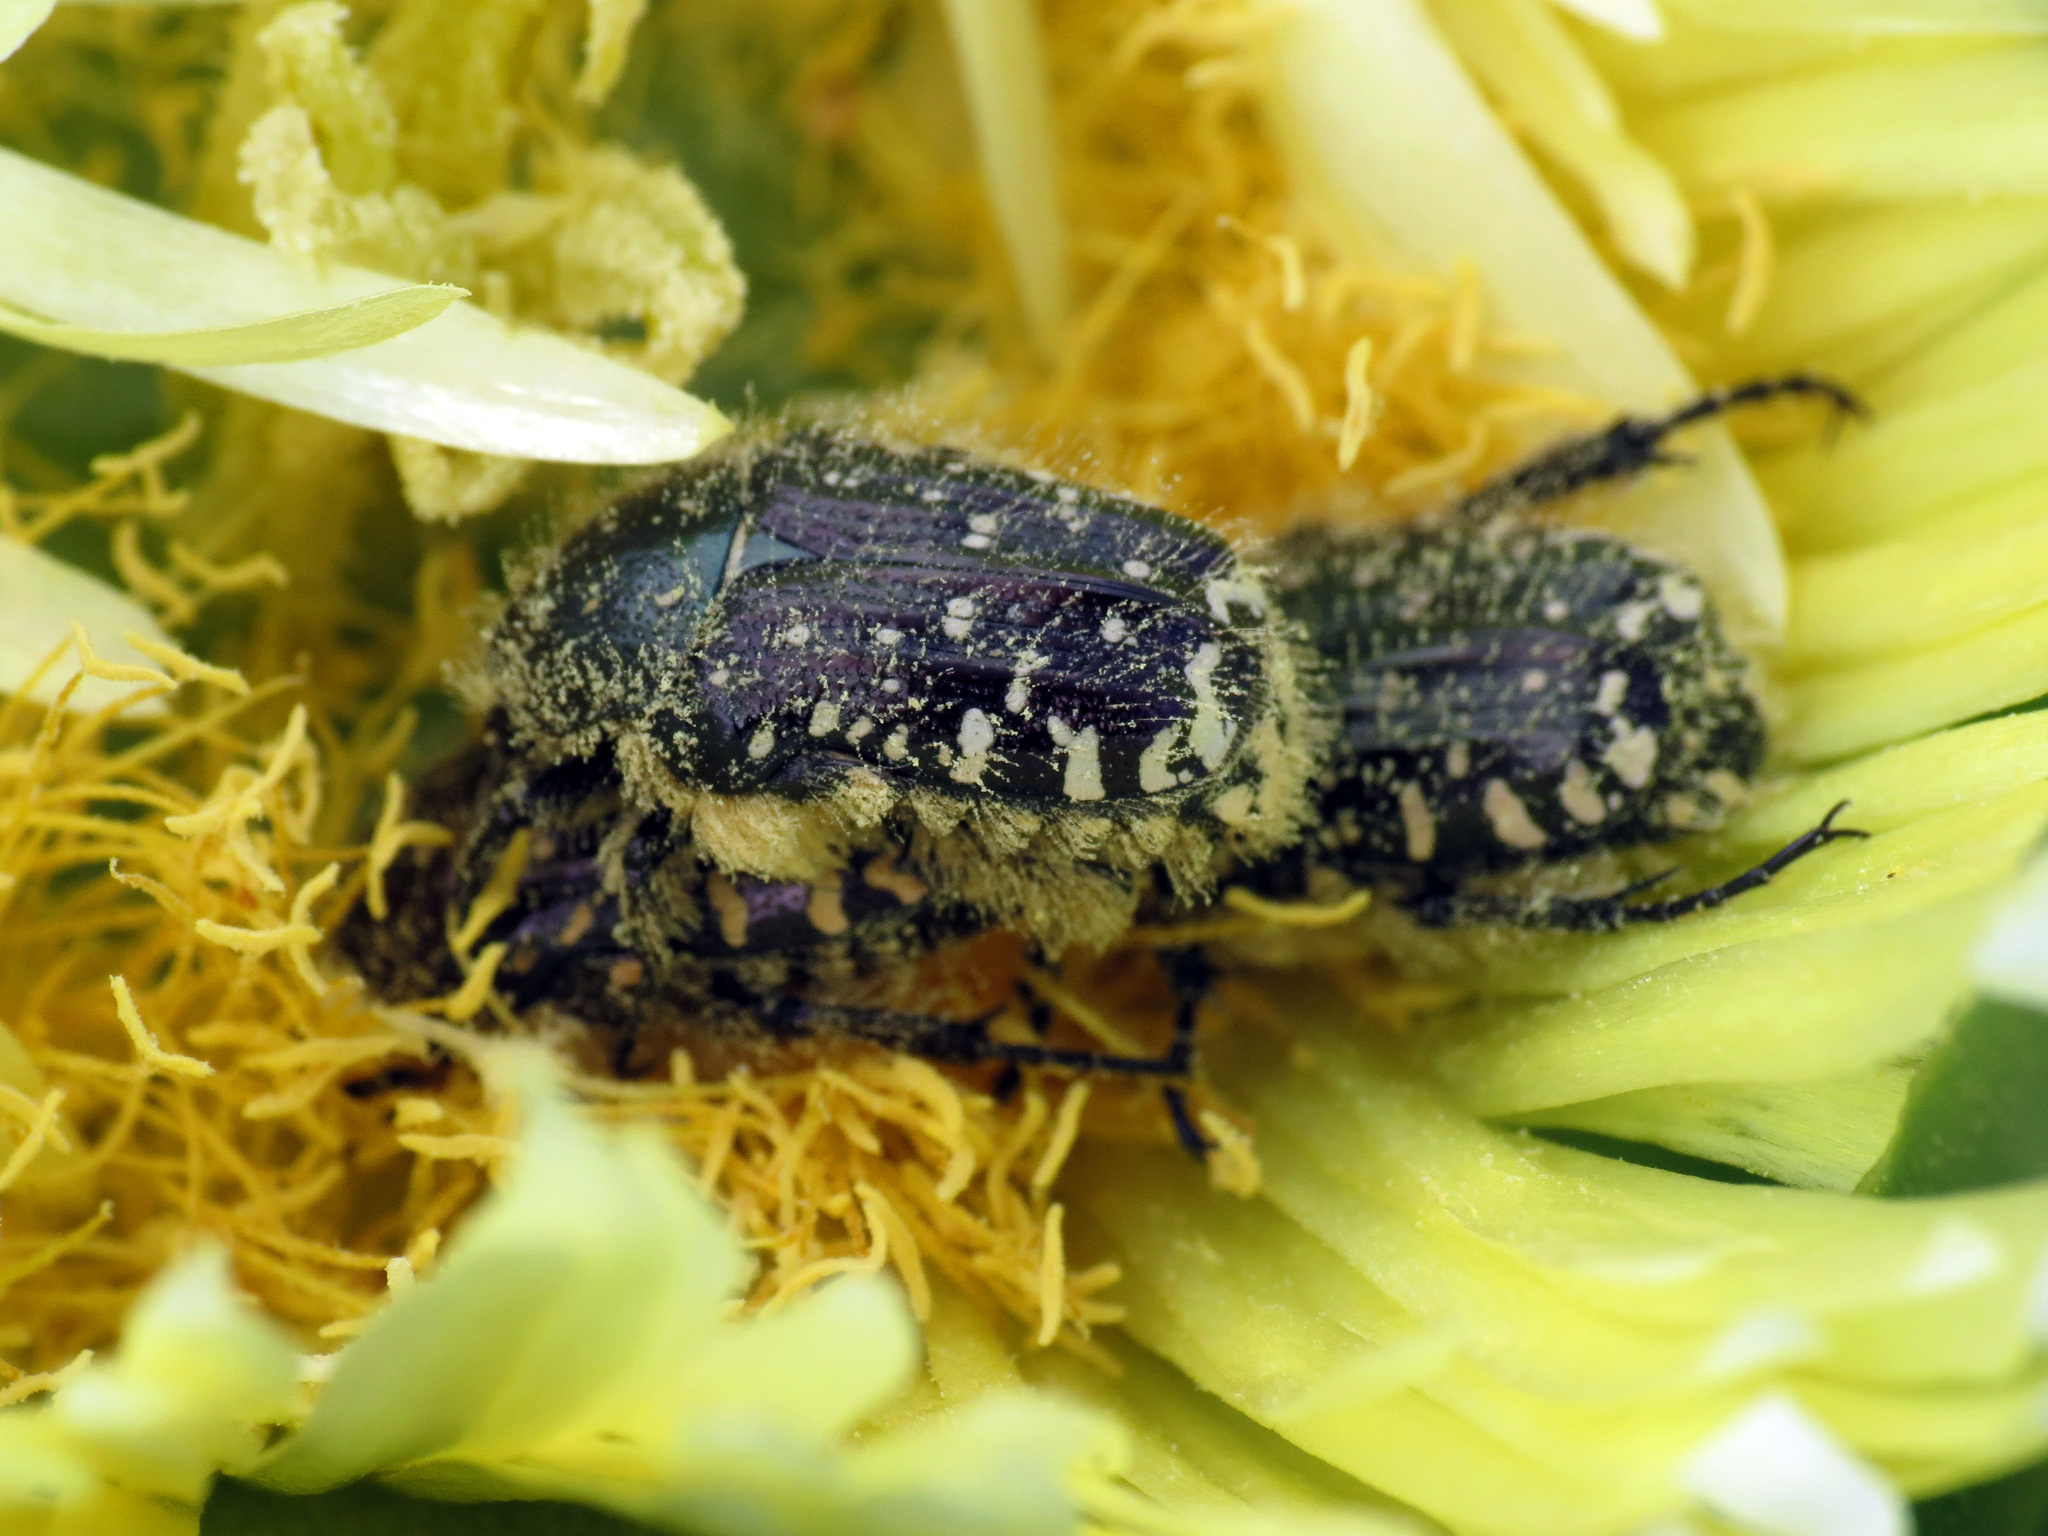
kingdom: Animalia
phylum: Arthropoda
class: Insecta
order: Coleoptera
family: Scarabaeidae
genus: Oxythyrea
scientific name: Oxythyrea funesta
